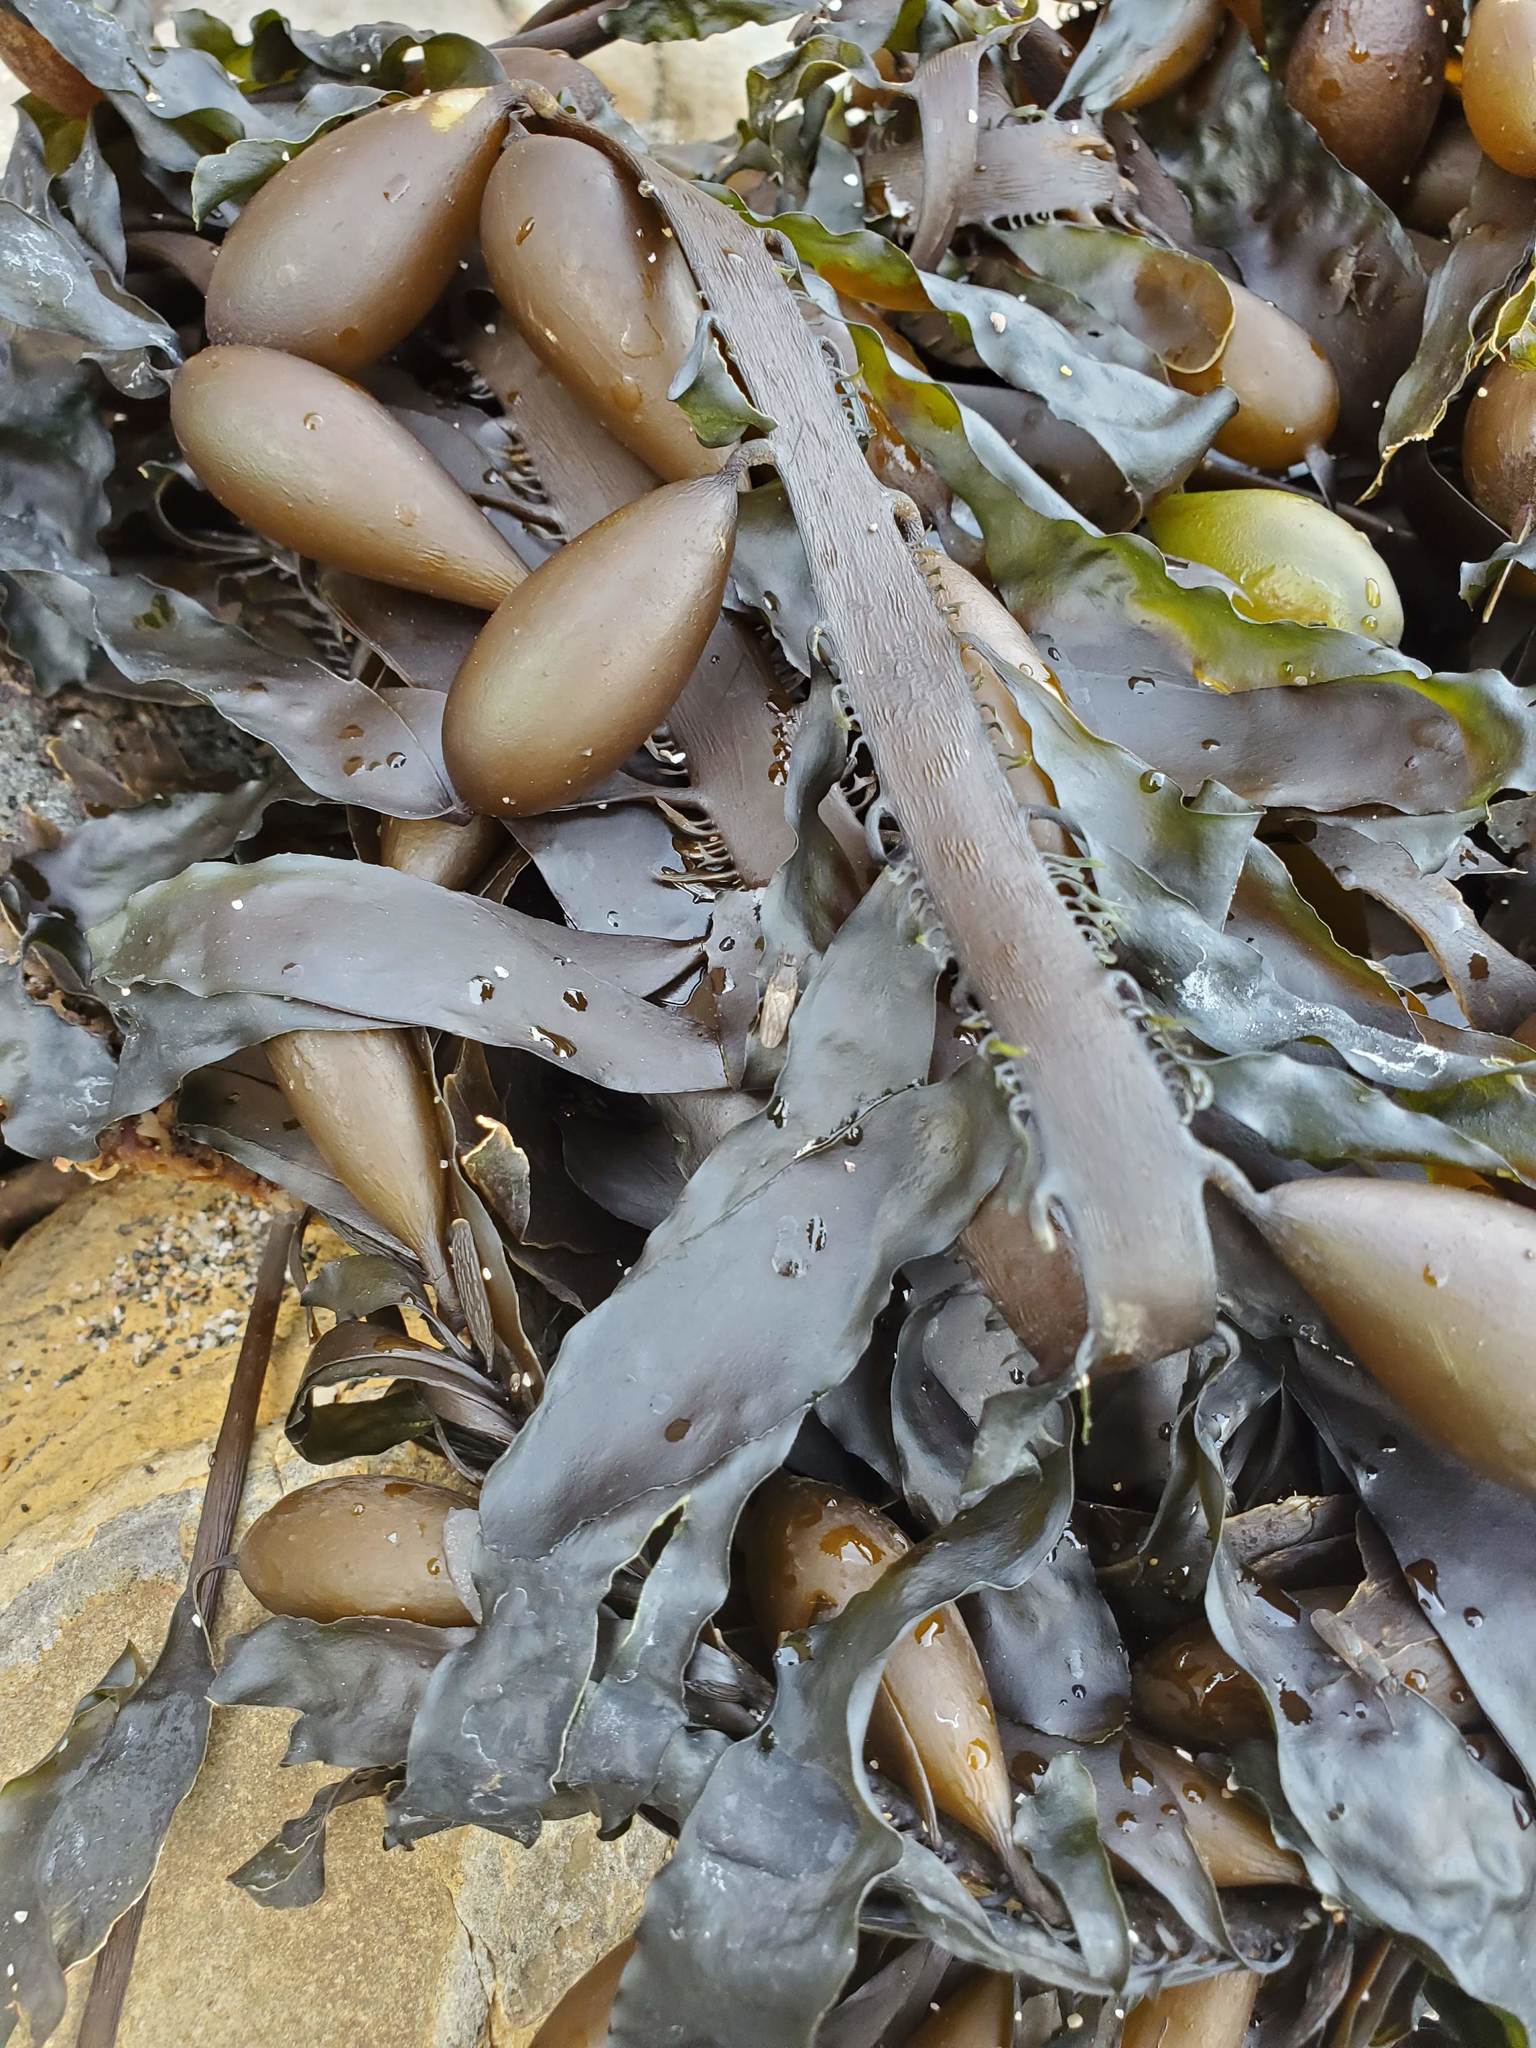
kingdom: Chromista
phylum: Ochrophyta
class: Phaeophyceae
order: Laminariales
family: Lessoniaceae
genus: Egregia
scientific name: Egregia menziesii
